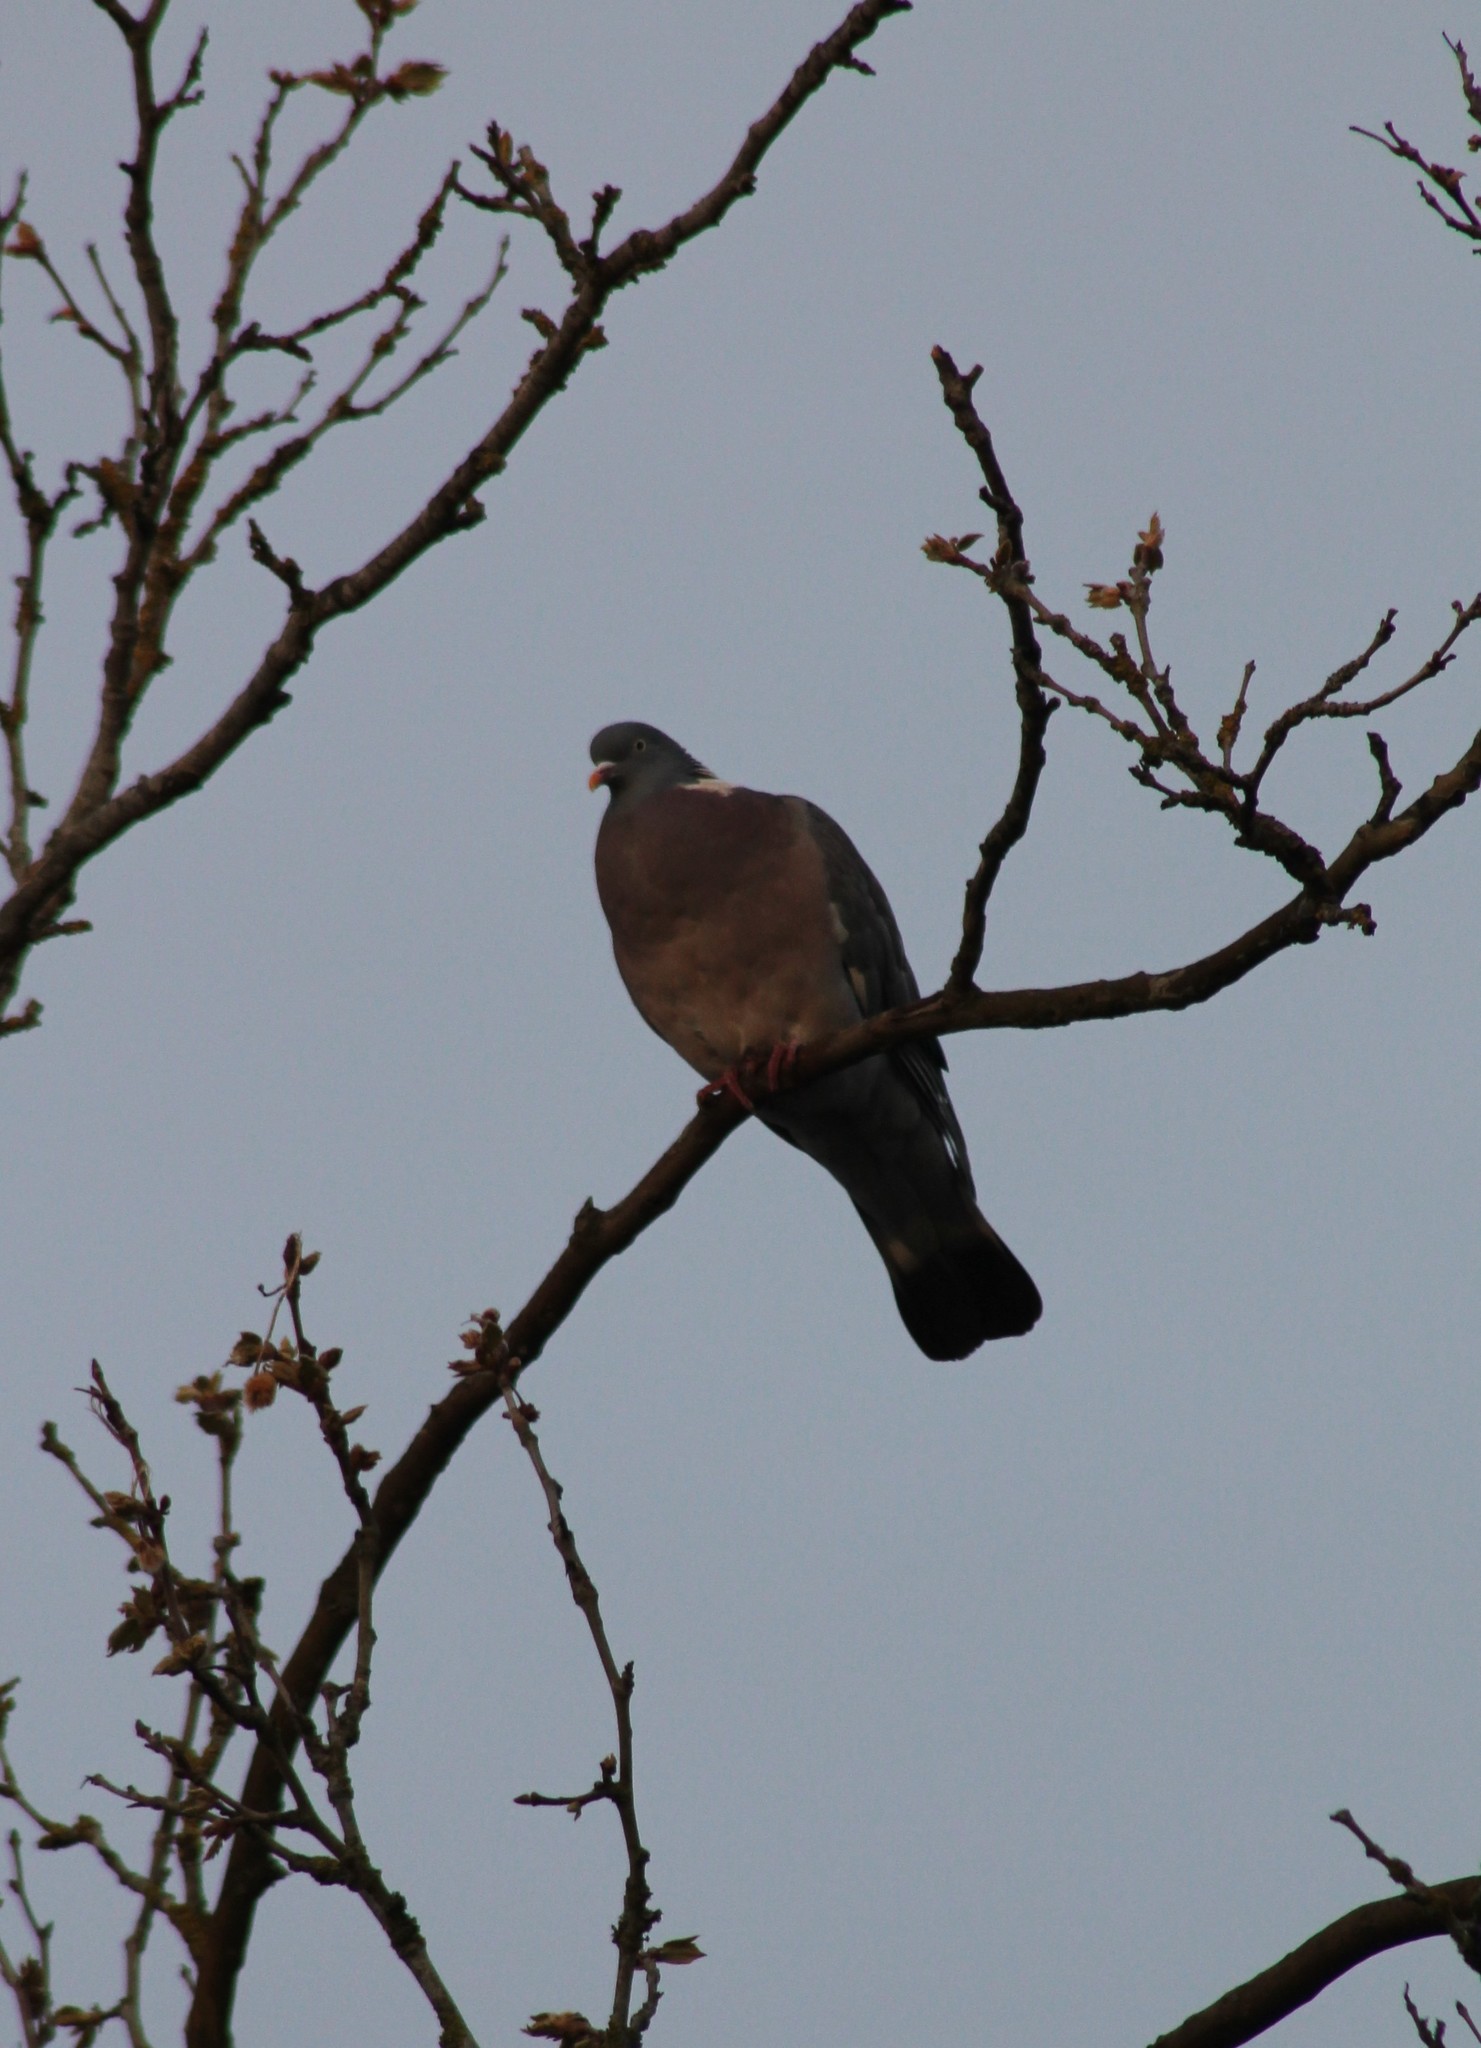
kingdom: Animalia
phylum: Chordata
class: Aves
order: Columbiformes
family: Columbidae
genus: Columba
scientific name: Columba palumbus
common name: Common wood pigeon
